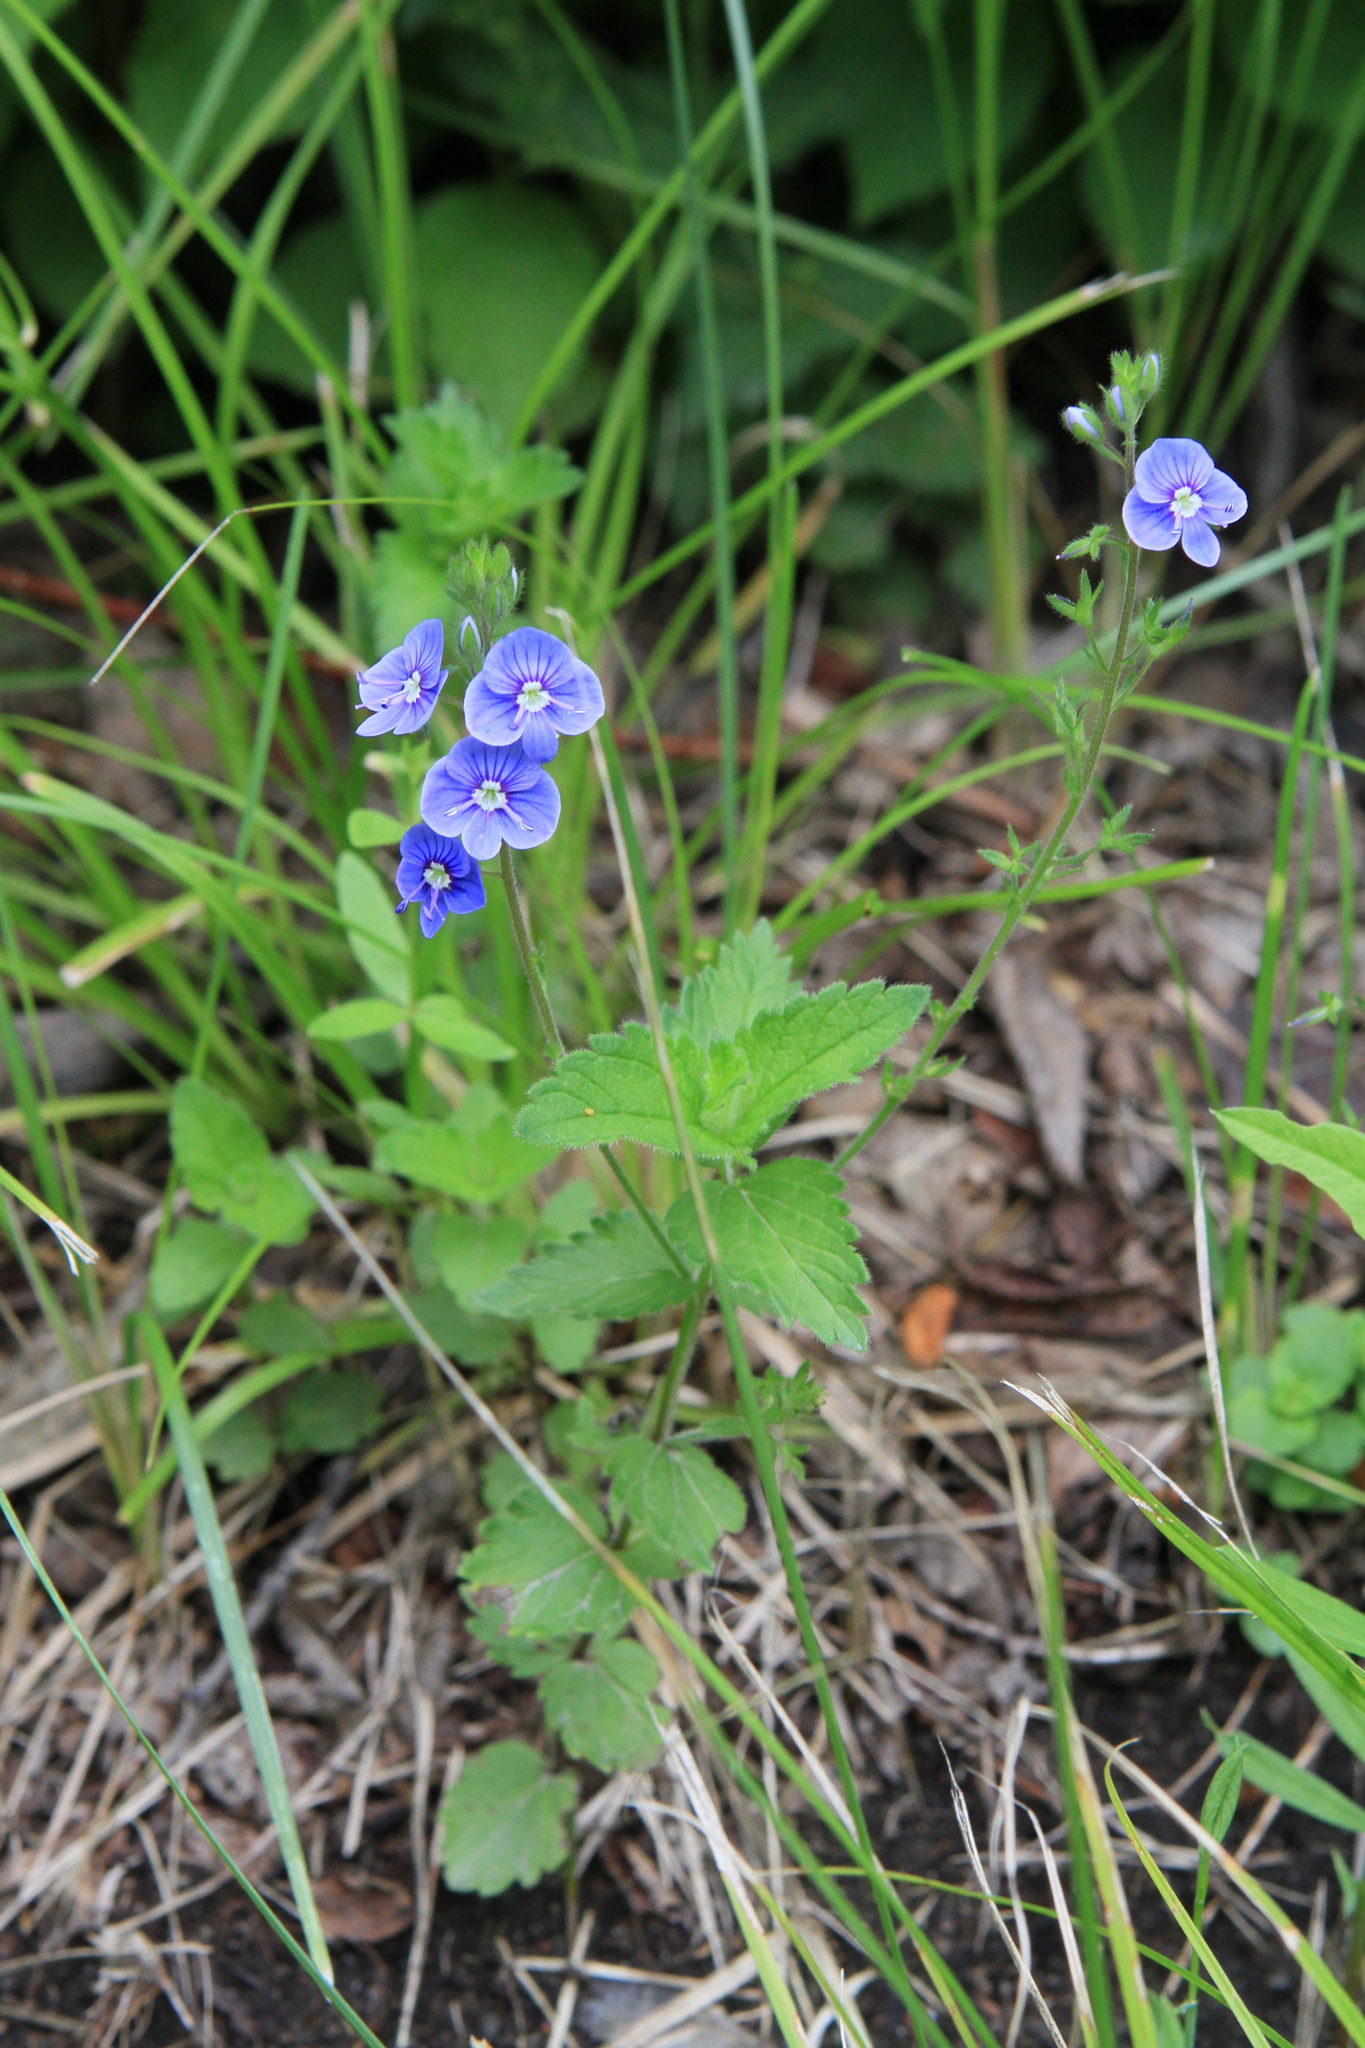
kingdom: Plantae
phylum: Tracheophyta
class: Magnoliopsida
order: Lamiales
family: Plantaginaceae
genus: Veronica
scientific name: Veronica chamaedrys
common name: Germander speedwell
